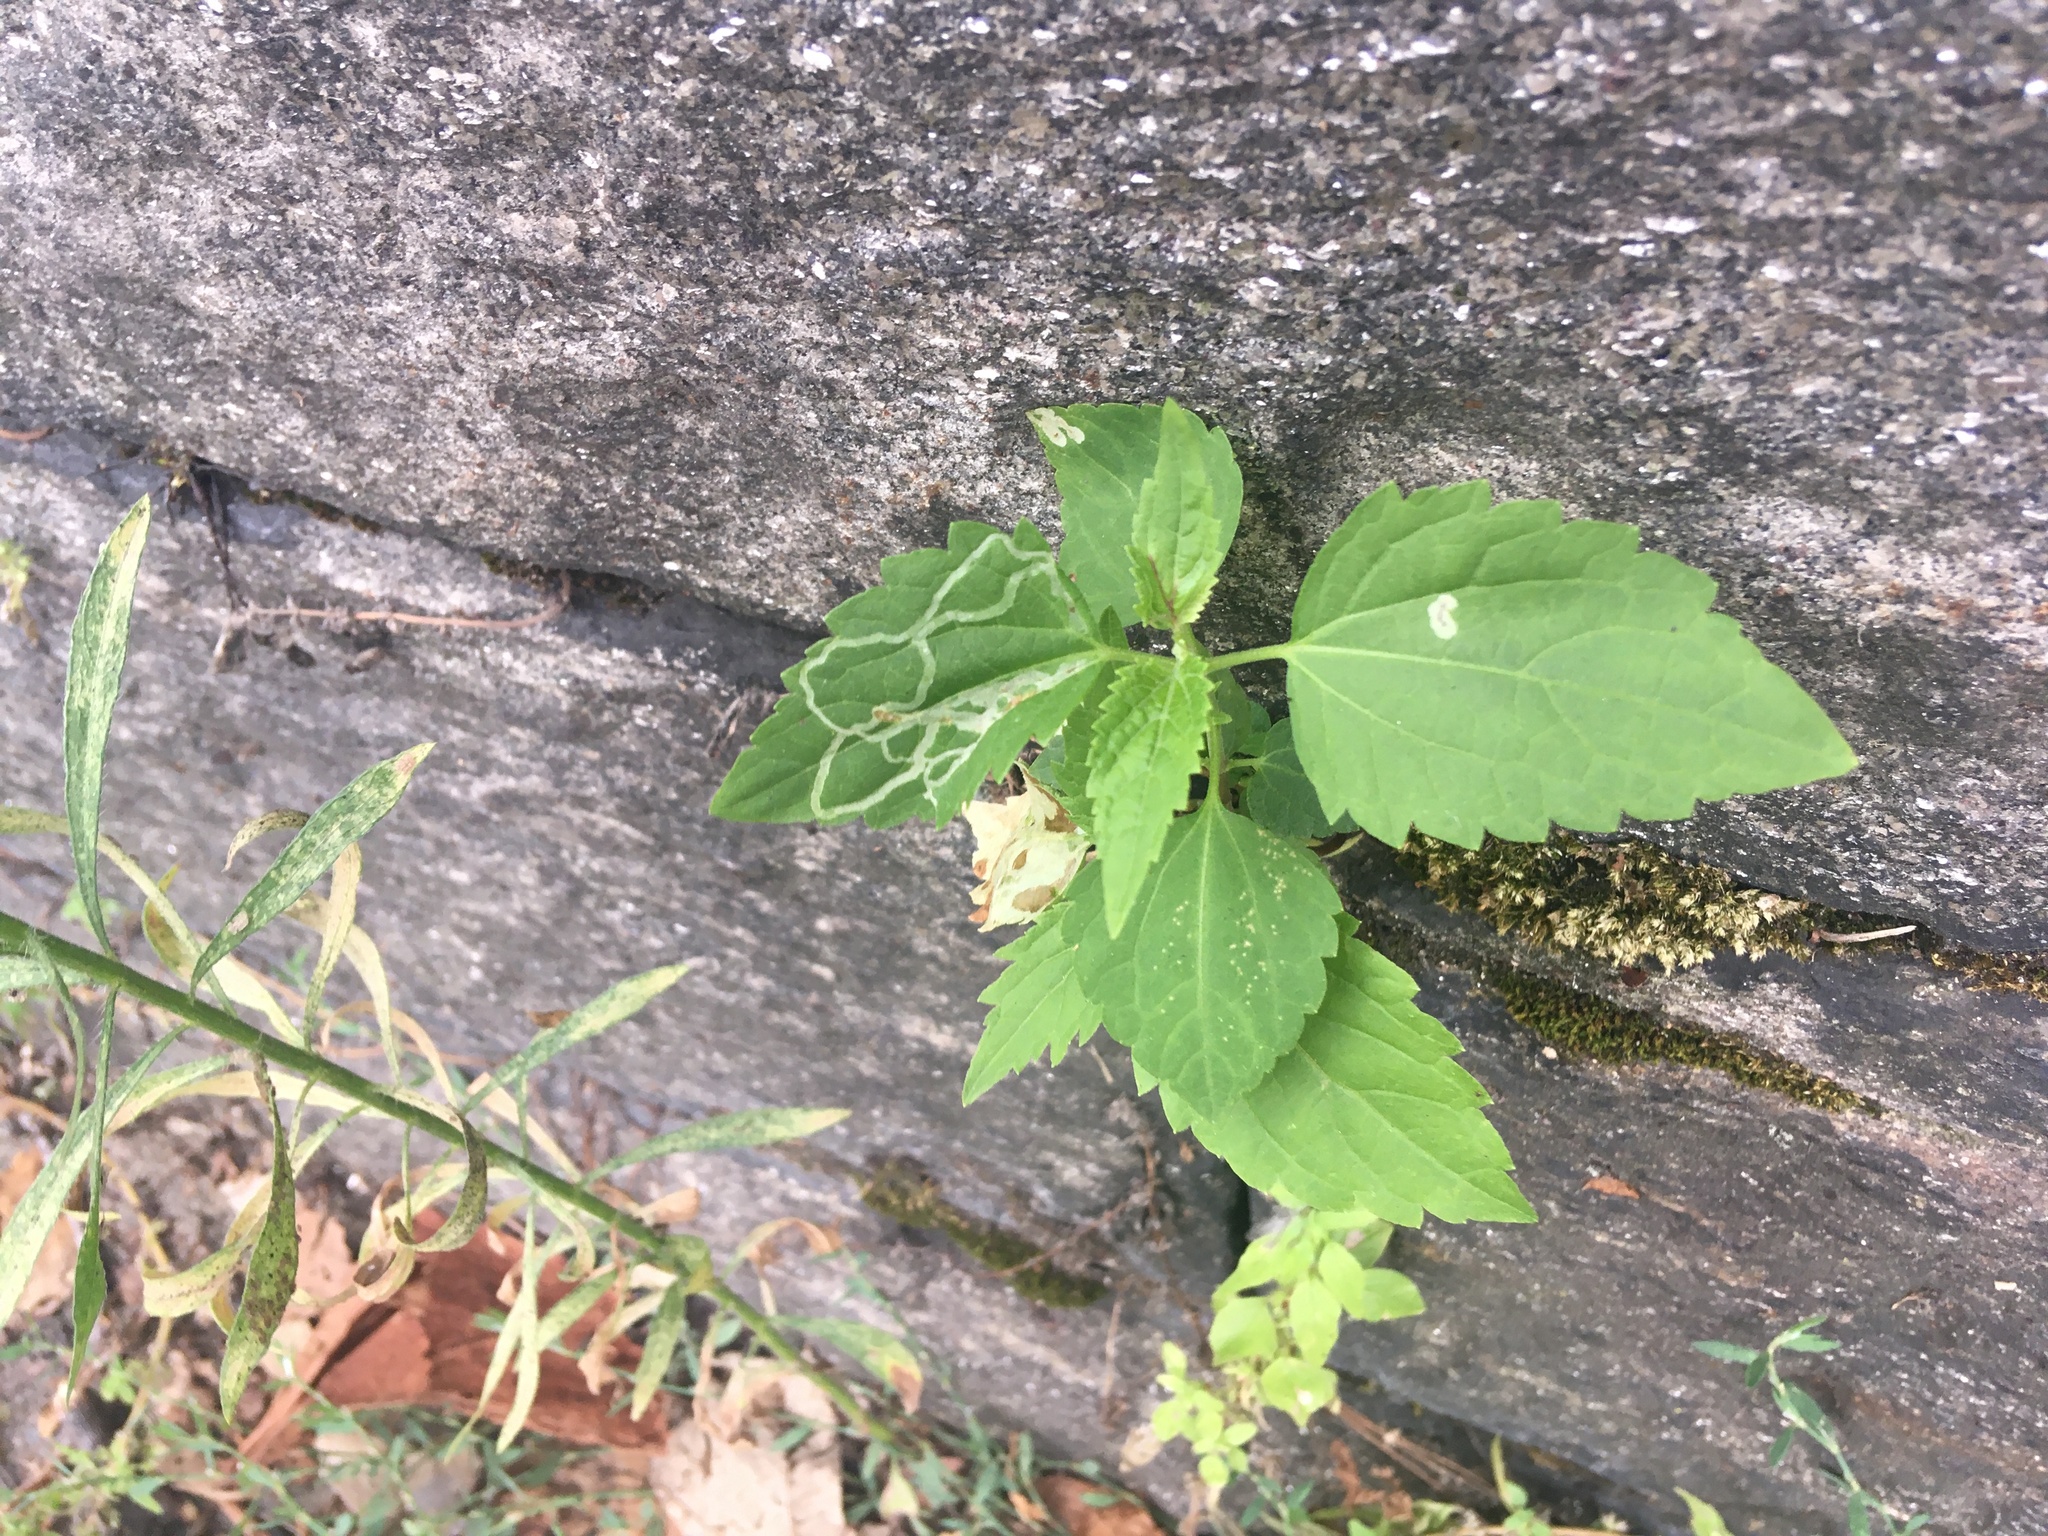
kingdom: Plantae
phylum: Tracheophyta
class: Magnoliopsida
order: Asterales
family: Asteraceae
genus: Ageratina
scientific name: Ageratina altissima
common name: White snakeroot
